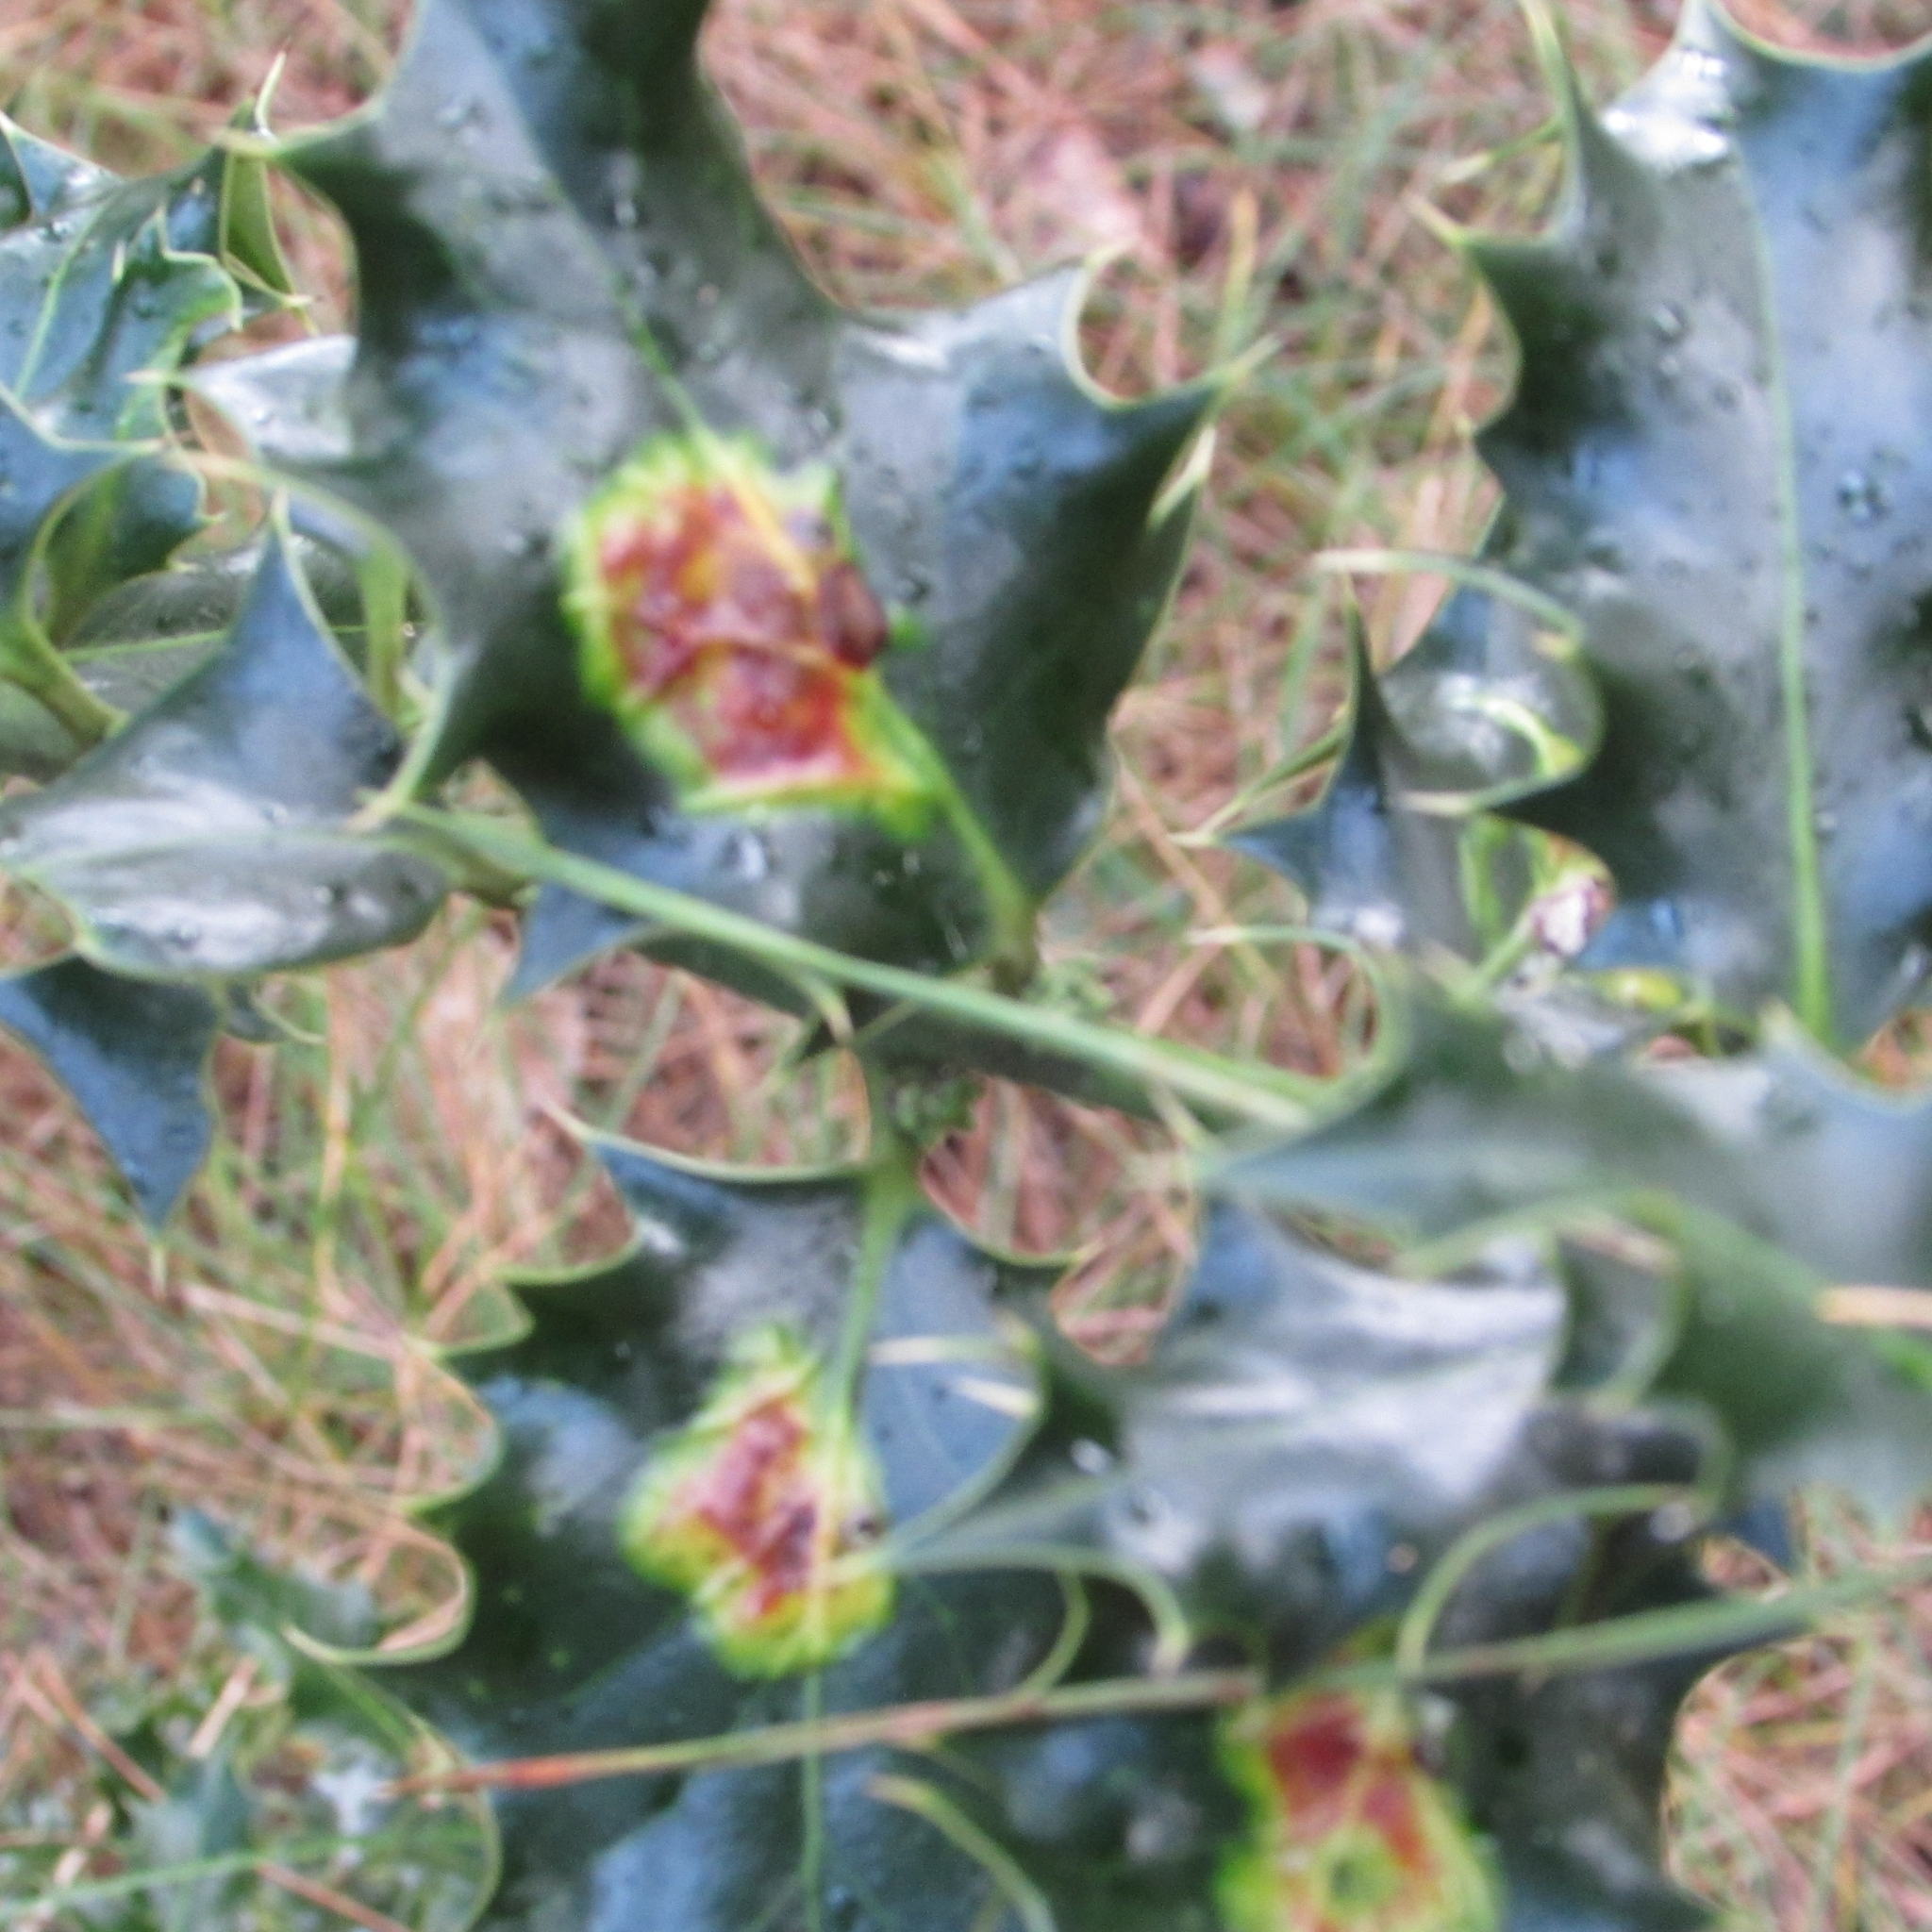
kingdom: Animalia
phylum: Arthropoda
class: Insecta
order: Diptera
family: Agromyzidae
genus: Phytomyza
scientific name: Phytomyza ilicis
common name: Holly leafminer
